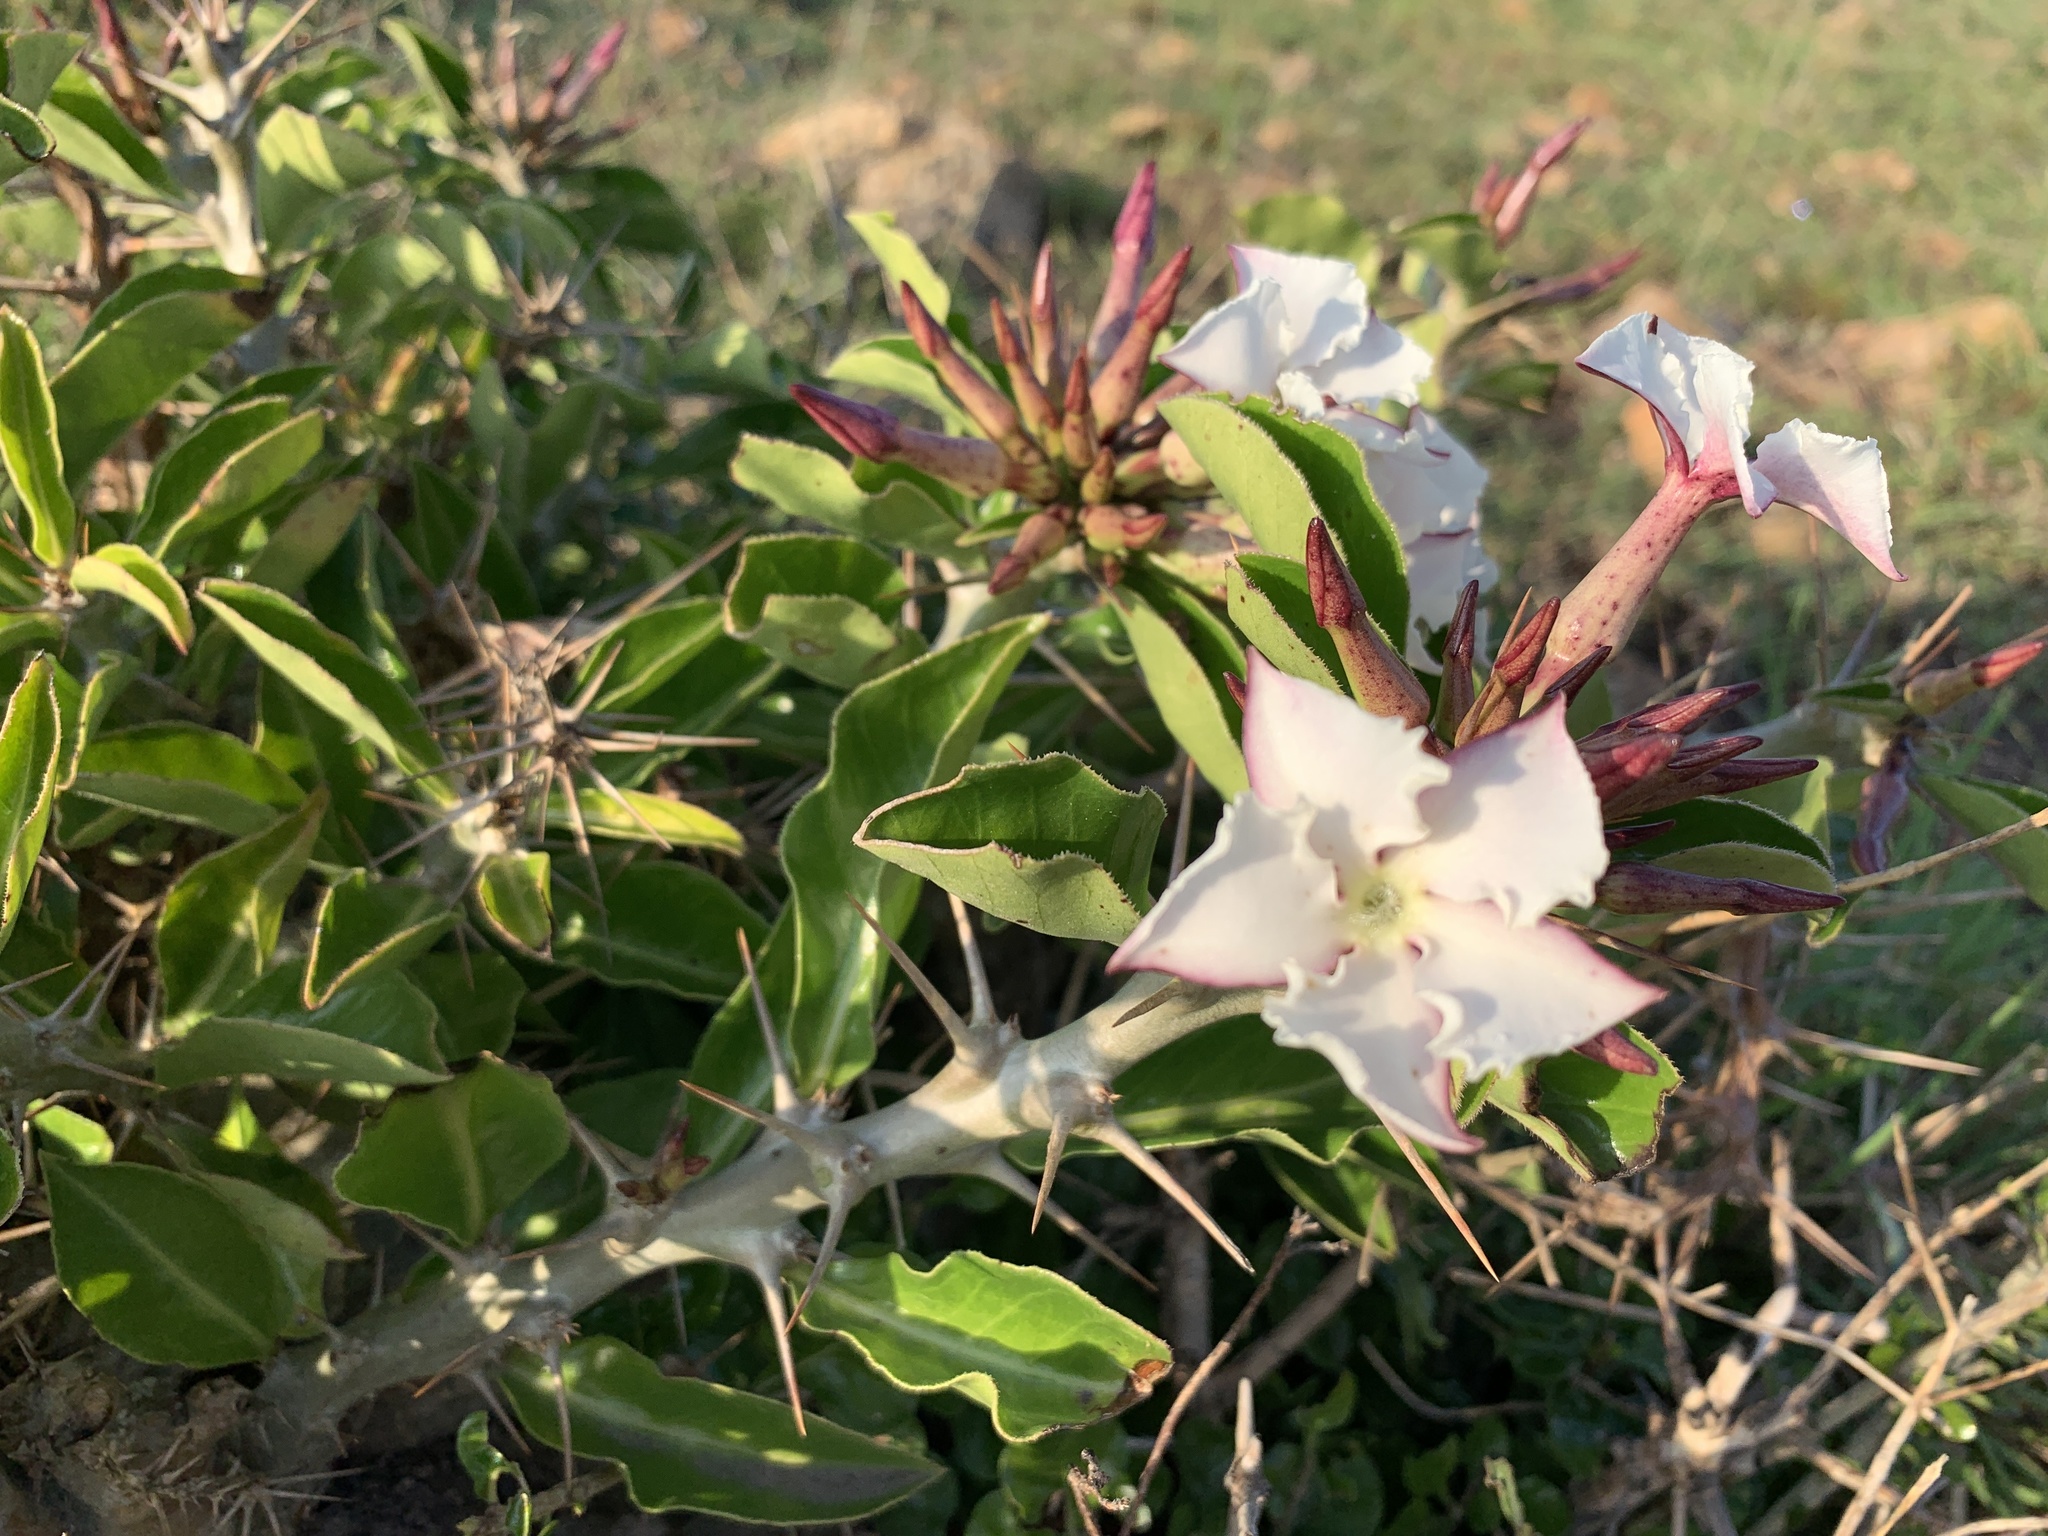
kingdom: Plantae
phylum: Tracheophyta
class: Magnoliopsida
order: Gentianales
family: Apocynaceae
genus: Pachypodium
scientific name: Pachypodium saundersii
